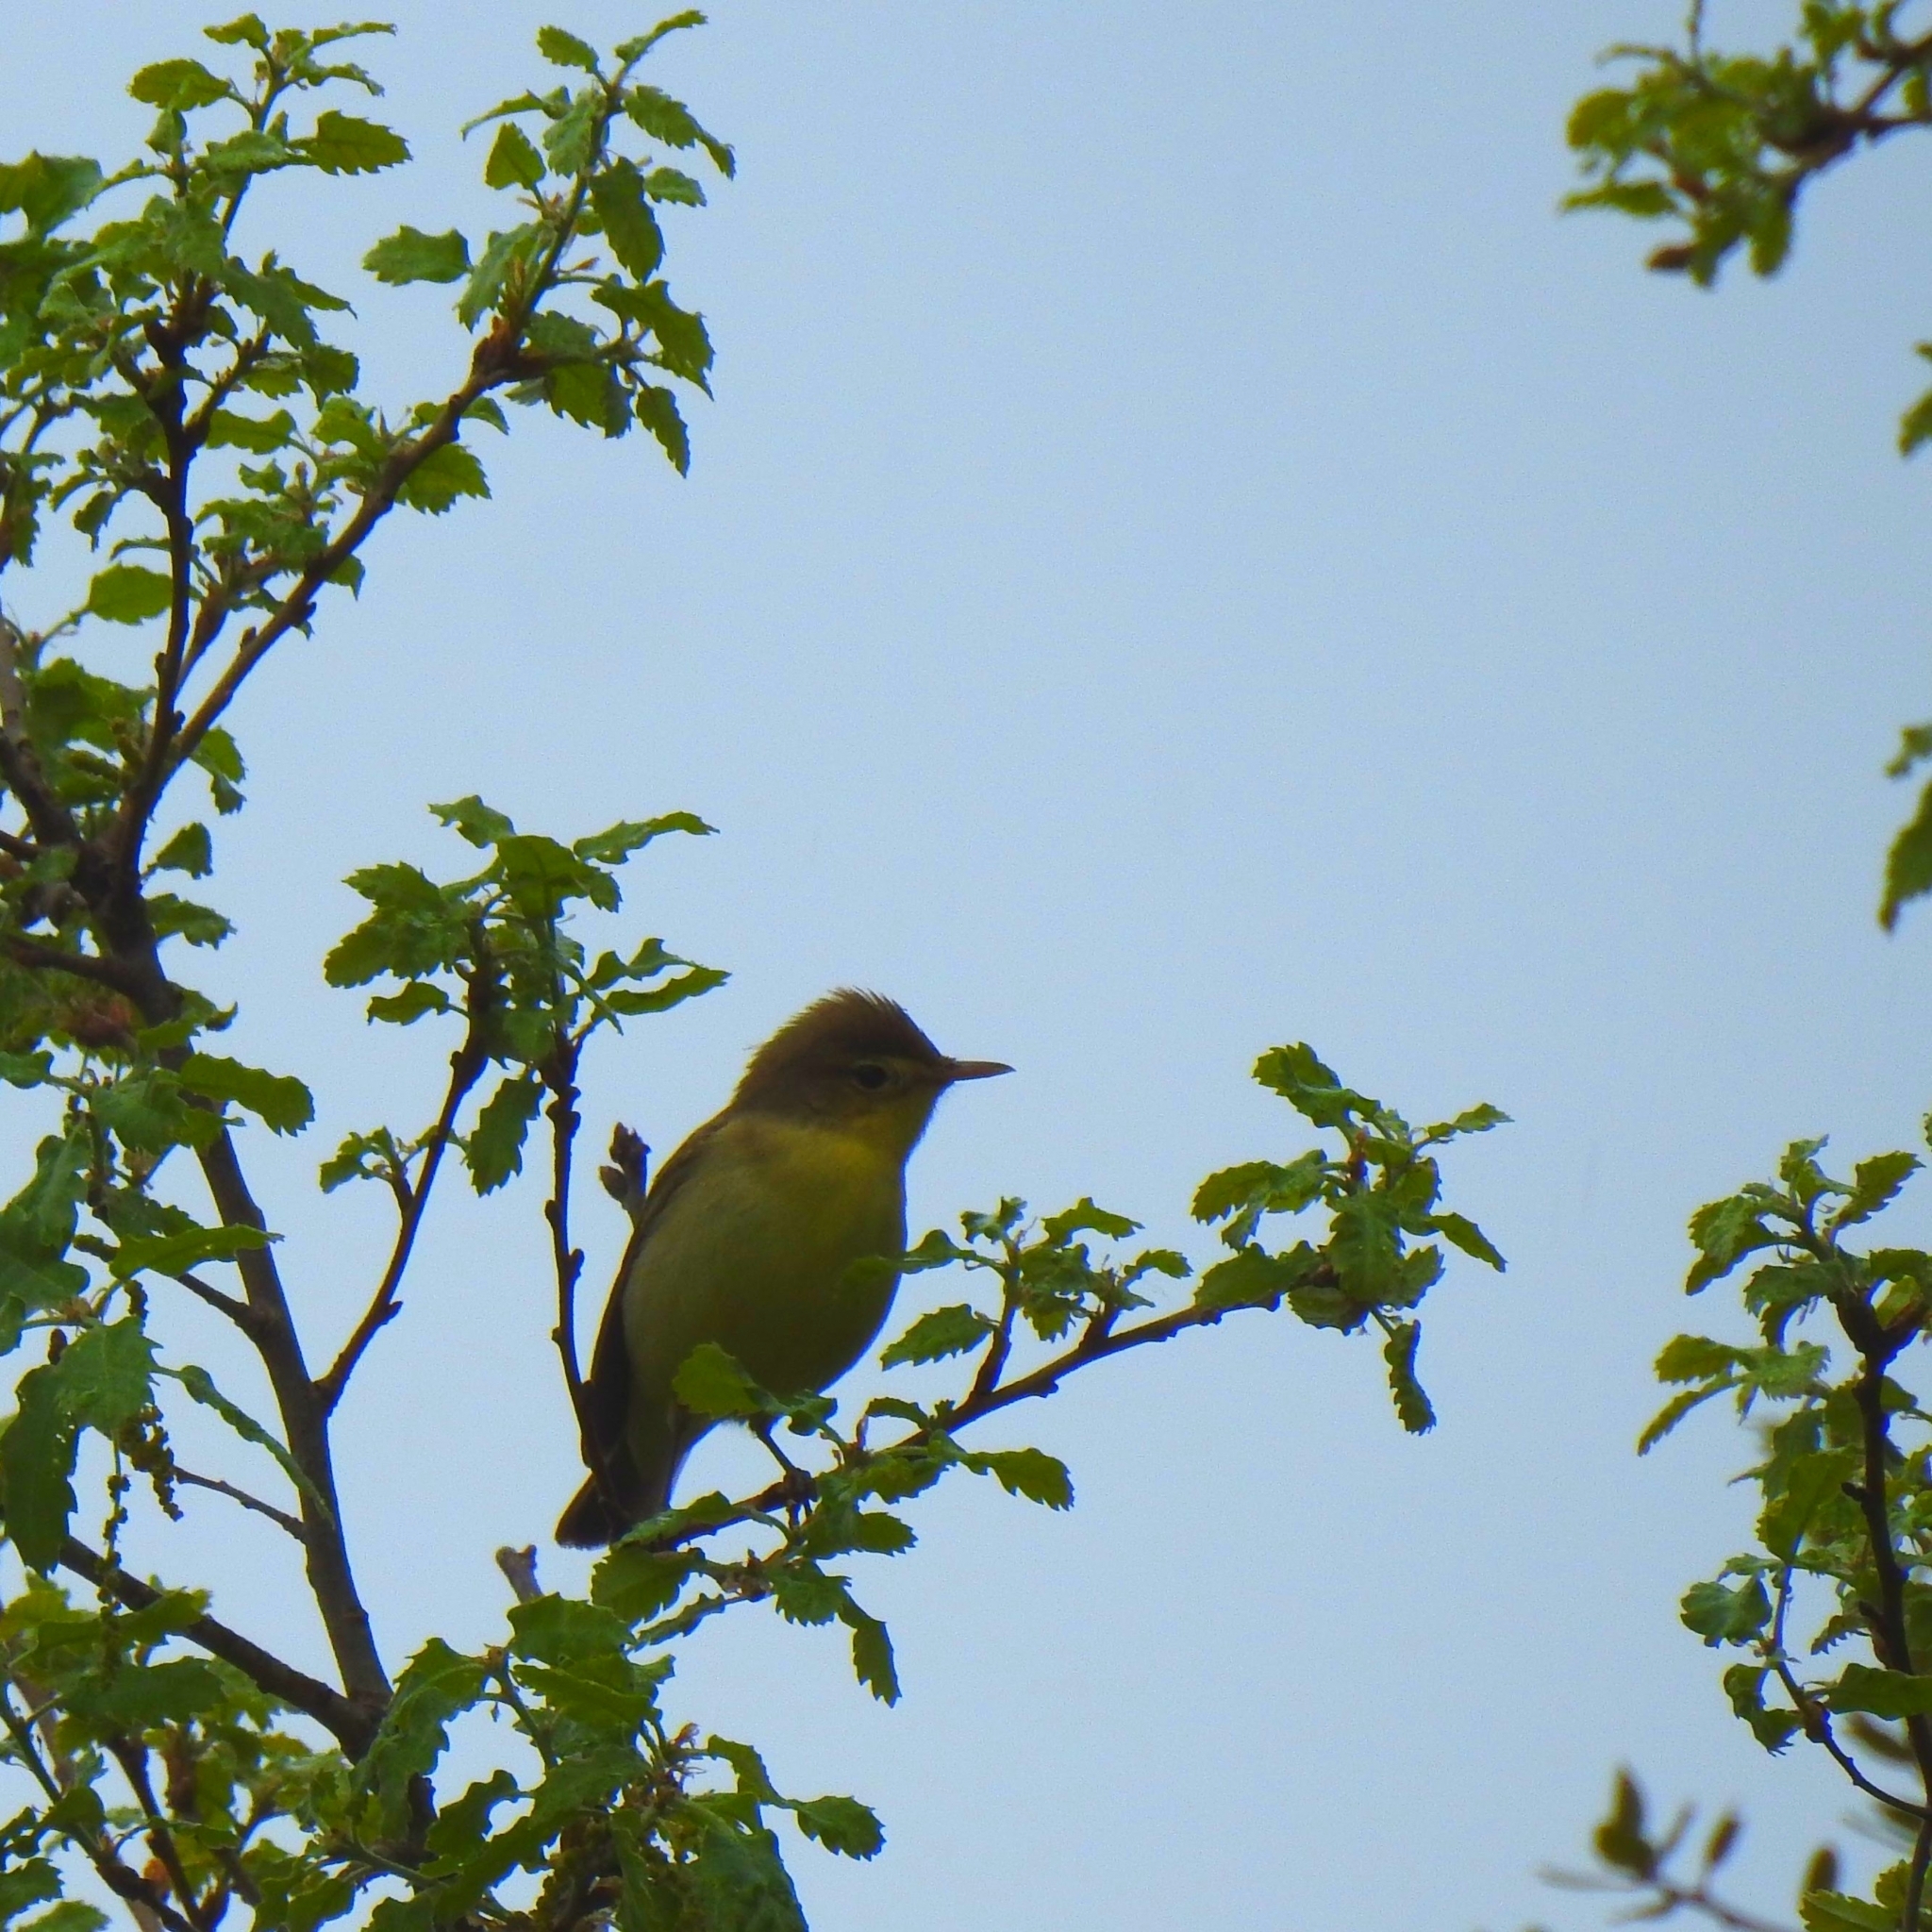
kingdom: Animalia
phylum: Chordata
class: Aves
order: Passeriformes
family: Acrocephalidae
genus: Hippolais
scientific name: Hippolais polyglotta
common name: Melodious warbler
